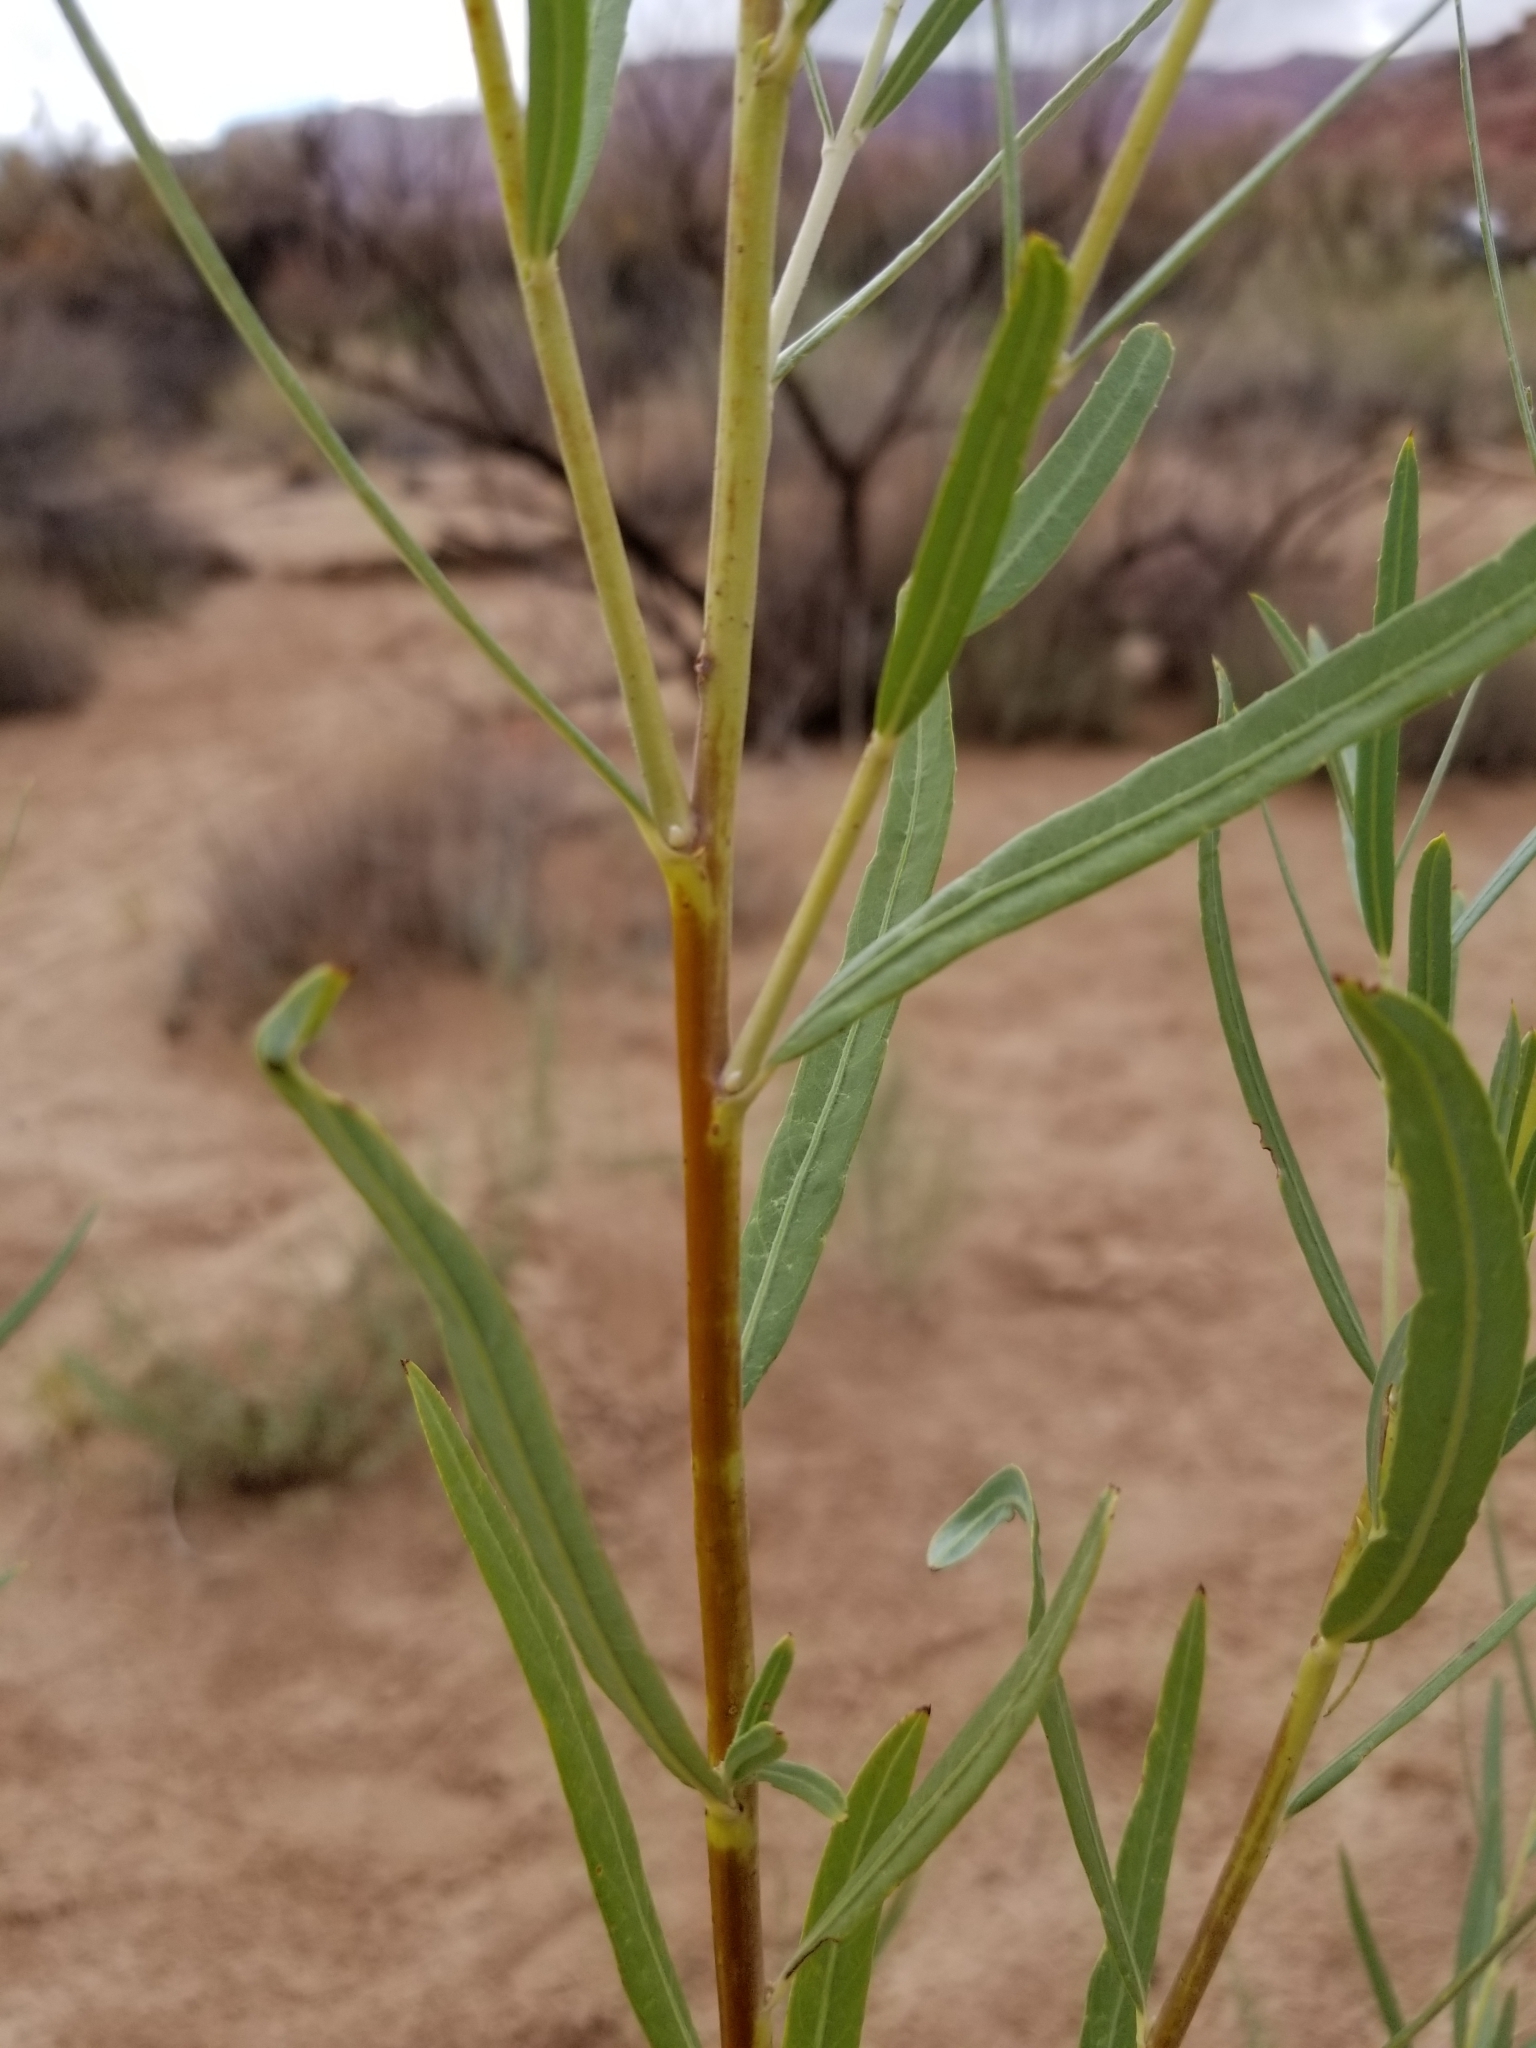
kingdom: Plantae
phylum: Tracheophyta
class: Magnoliopsida
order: Malpighiales
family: Salicaceae
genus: Salix
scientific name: Salix exigua
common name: Coyote willow
